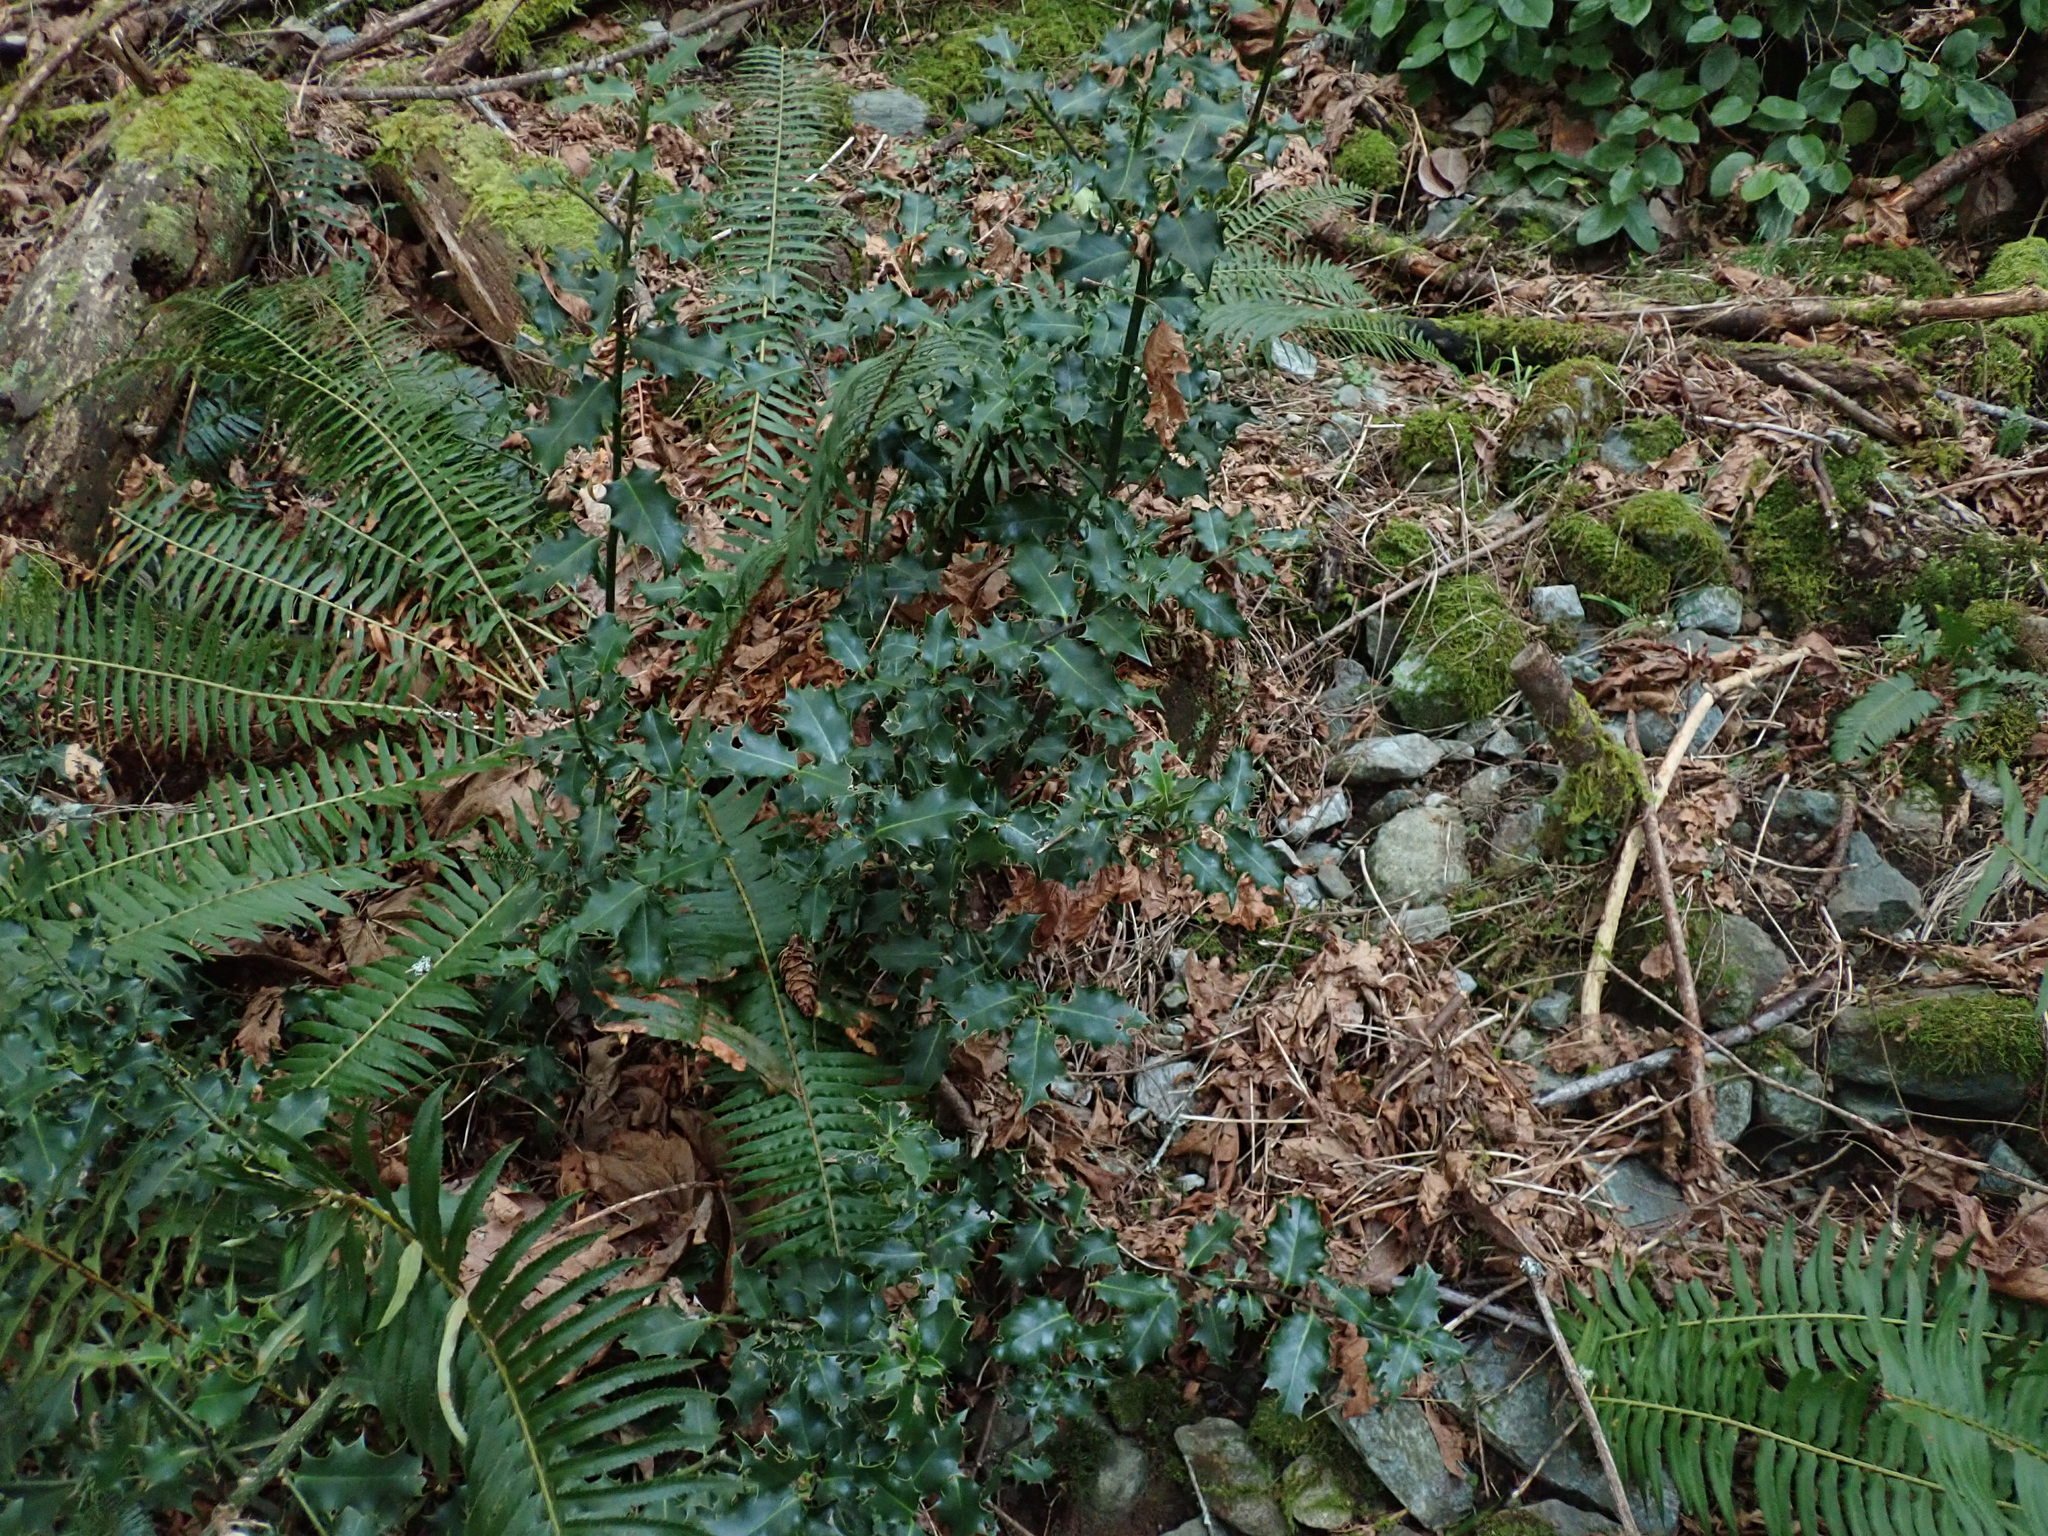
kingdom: Plantae
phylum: Tracheophyta
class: Magnoliopsida
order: Aquifoliales
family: Aquifoliaceae
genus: Ilex
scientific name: Ilex aquifolium
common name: English holly
